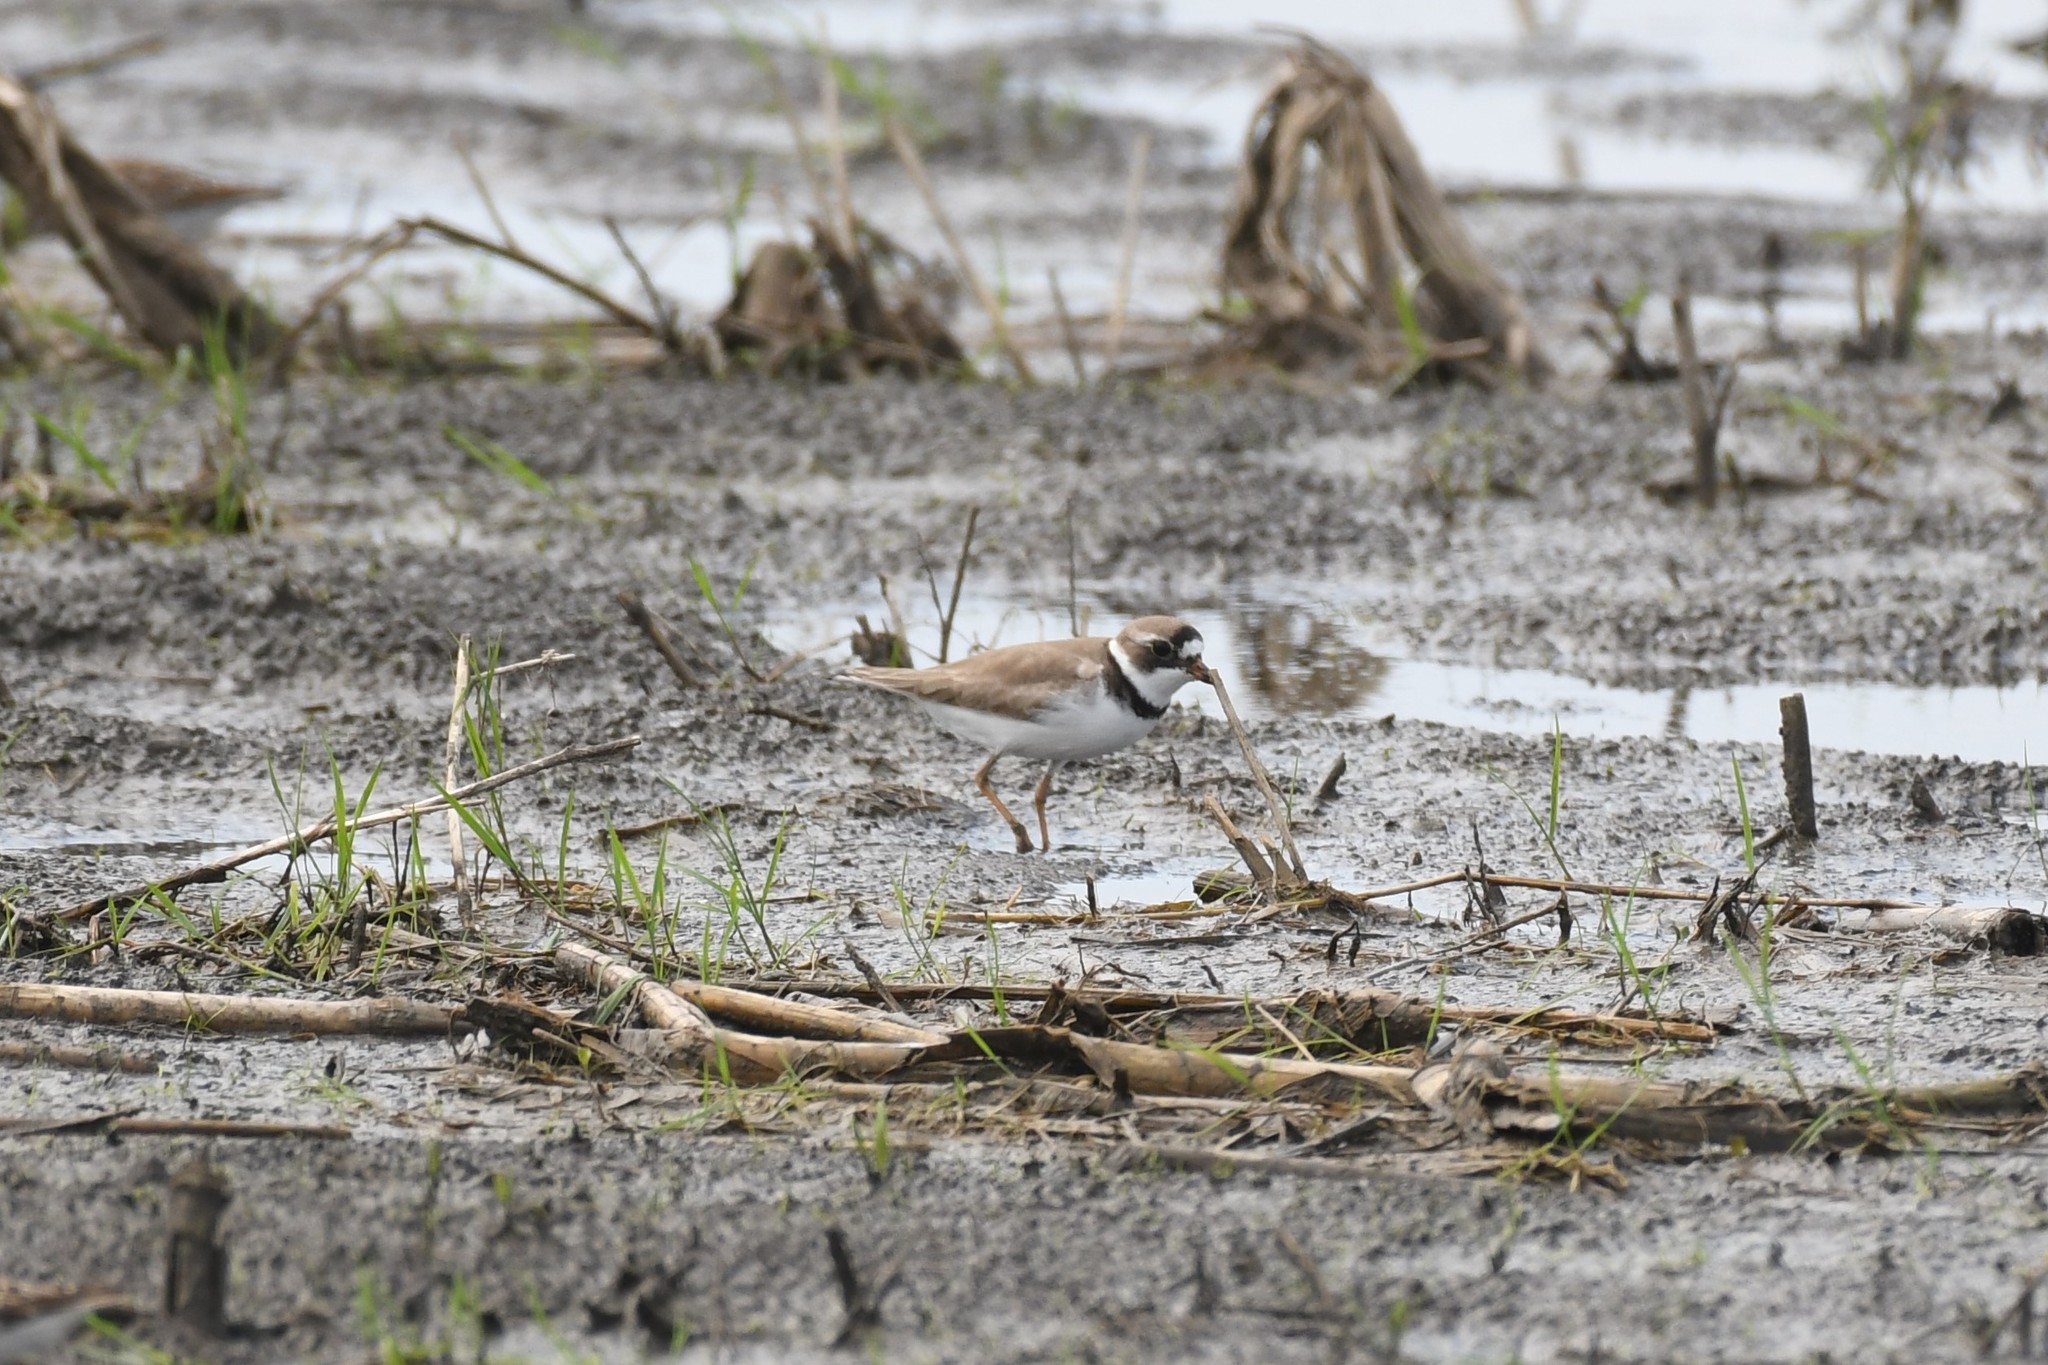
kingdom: Animalia
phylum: Chordata
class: Aves
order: Charadriiformes
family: Charadriidae
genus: Charadrius
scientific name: Charadrius semipalmatus
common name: Semipalmated plover
